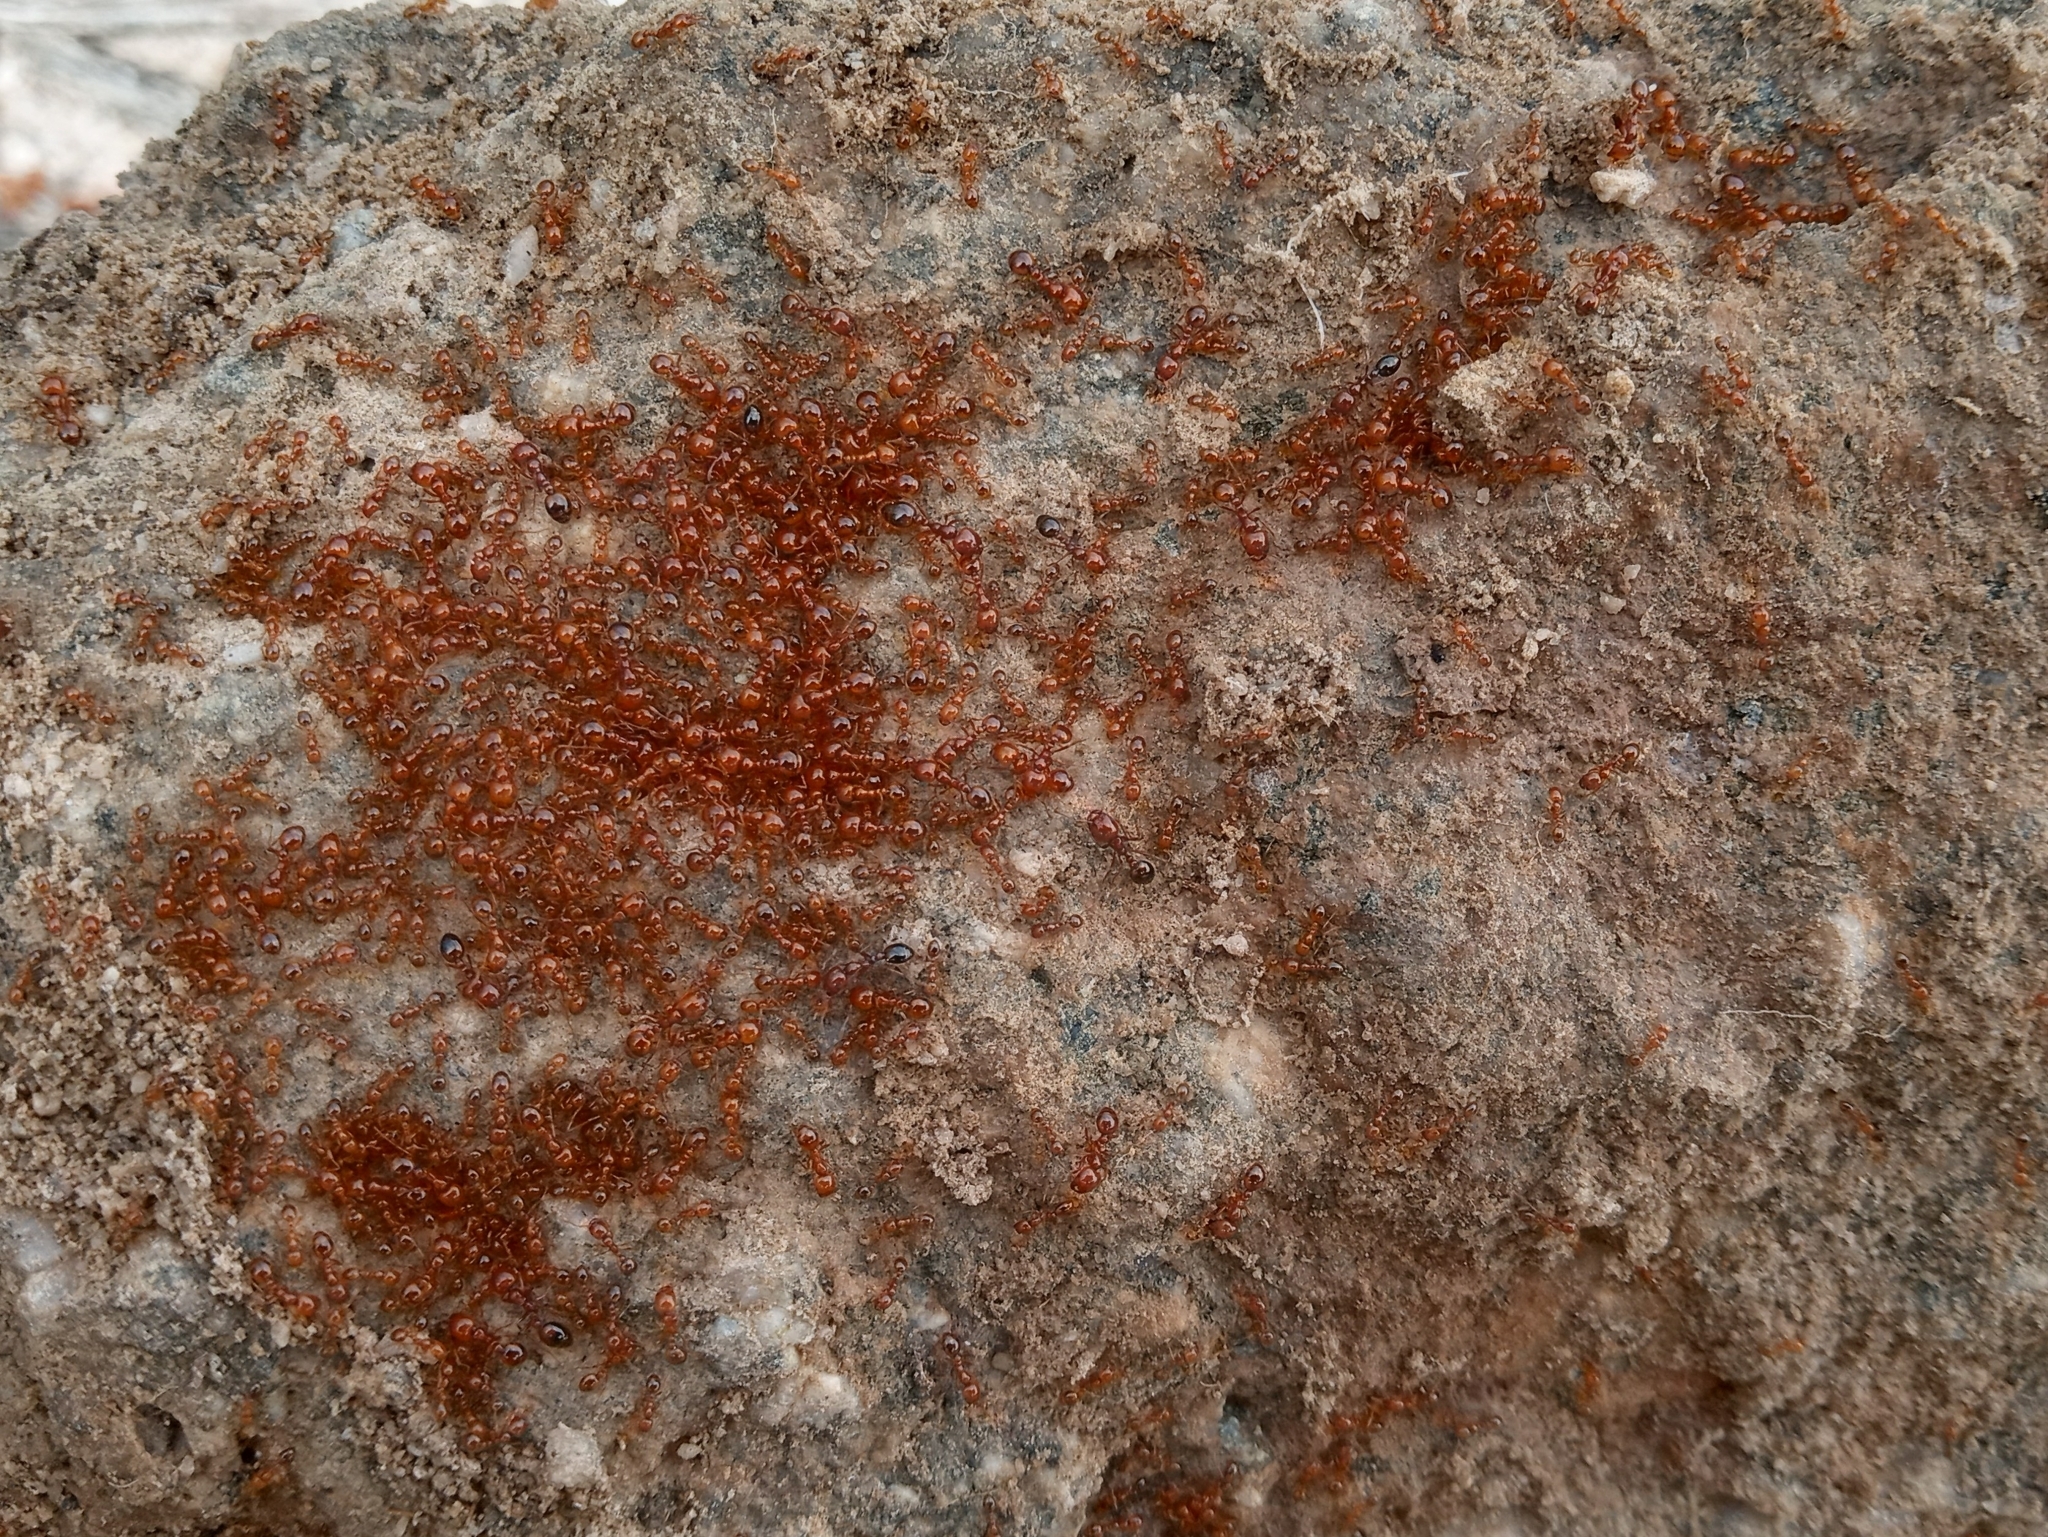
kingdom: Animalia
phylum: Arthropoda
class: Insecta
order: Hymenoptera
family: Formicidae
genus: Solenopsis
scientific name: Solenopsis xyloni
